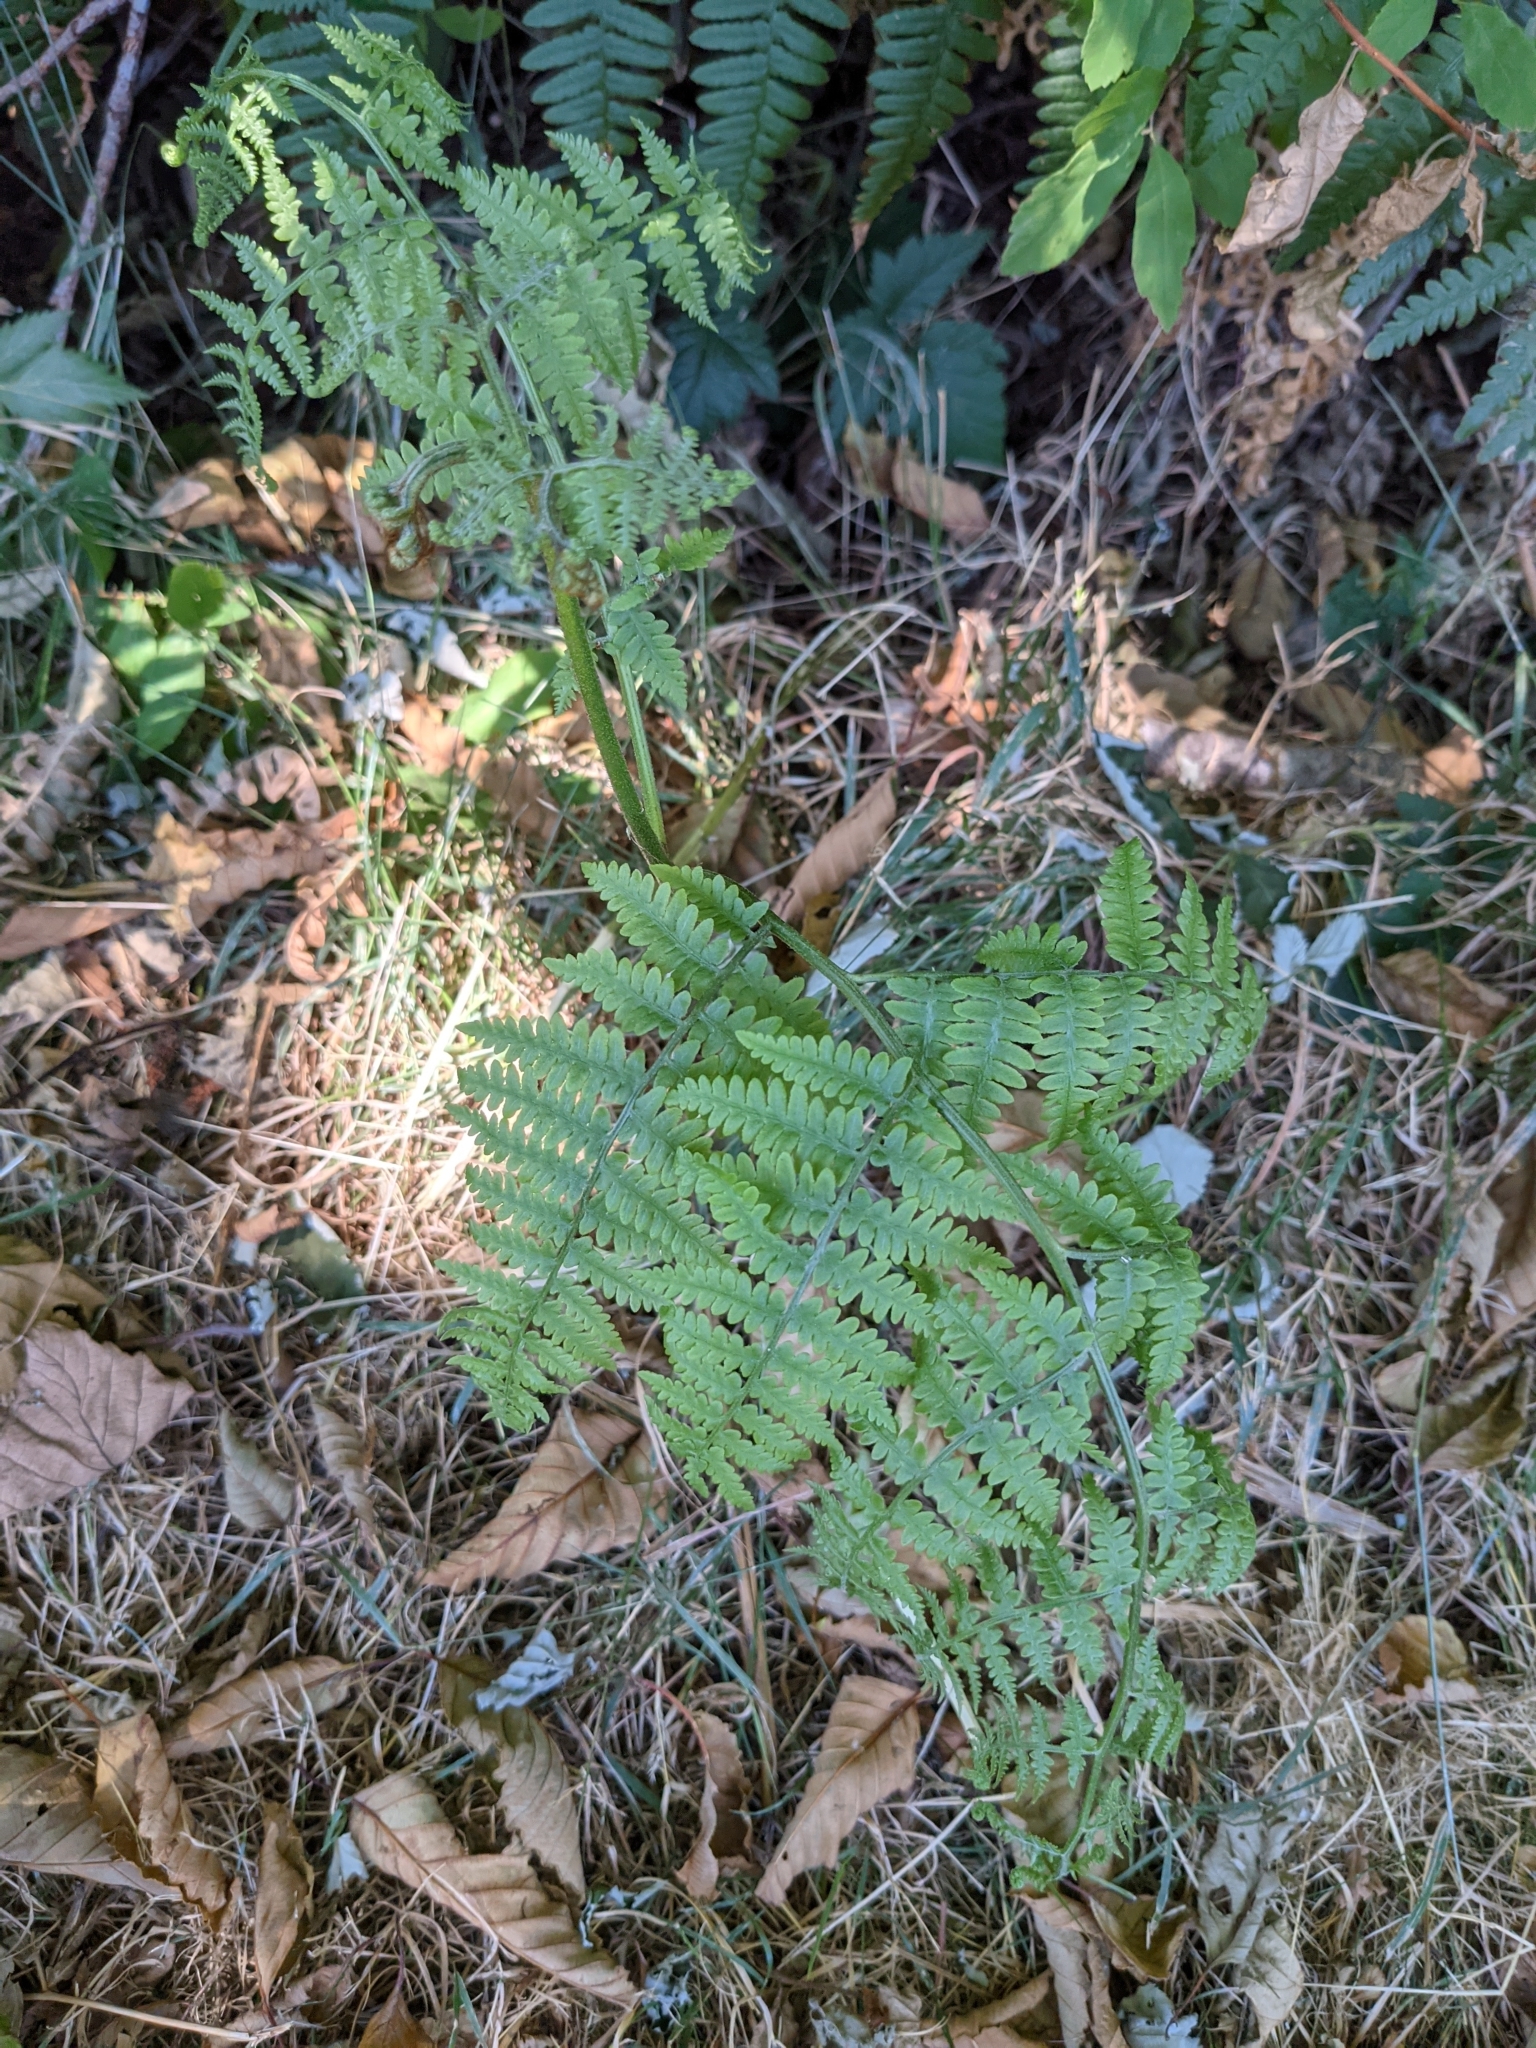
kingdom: Plantae
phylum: Tracheophyta
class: Polypodiopsida
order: Polypodiales
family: Dennstaedtiaceae
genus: Pteridium
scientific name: Pteridium aquilinum
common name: Bracken
